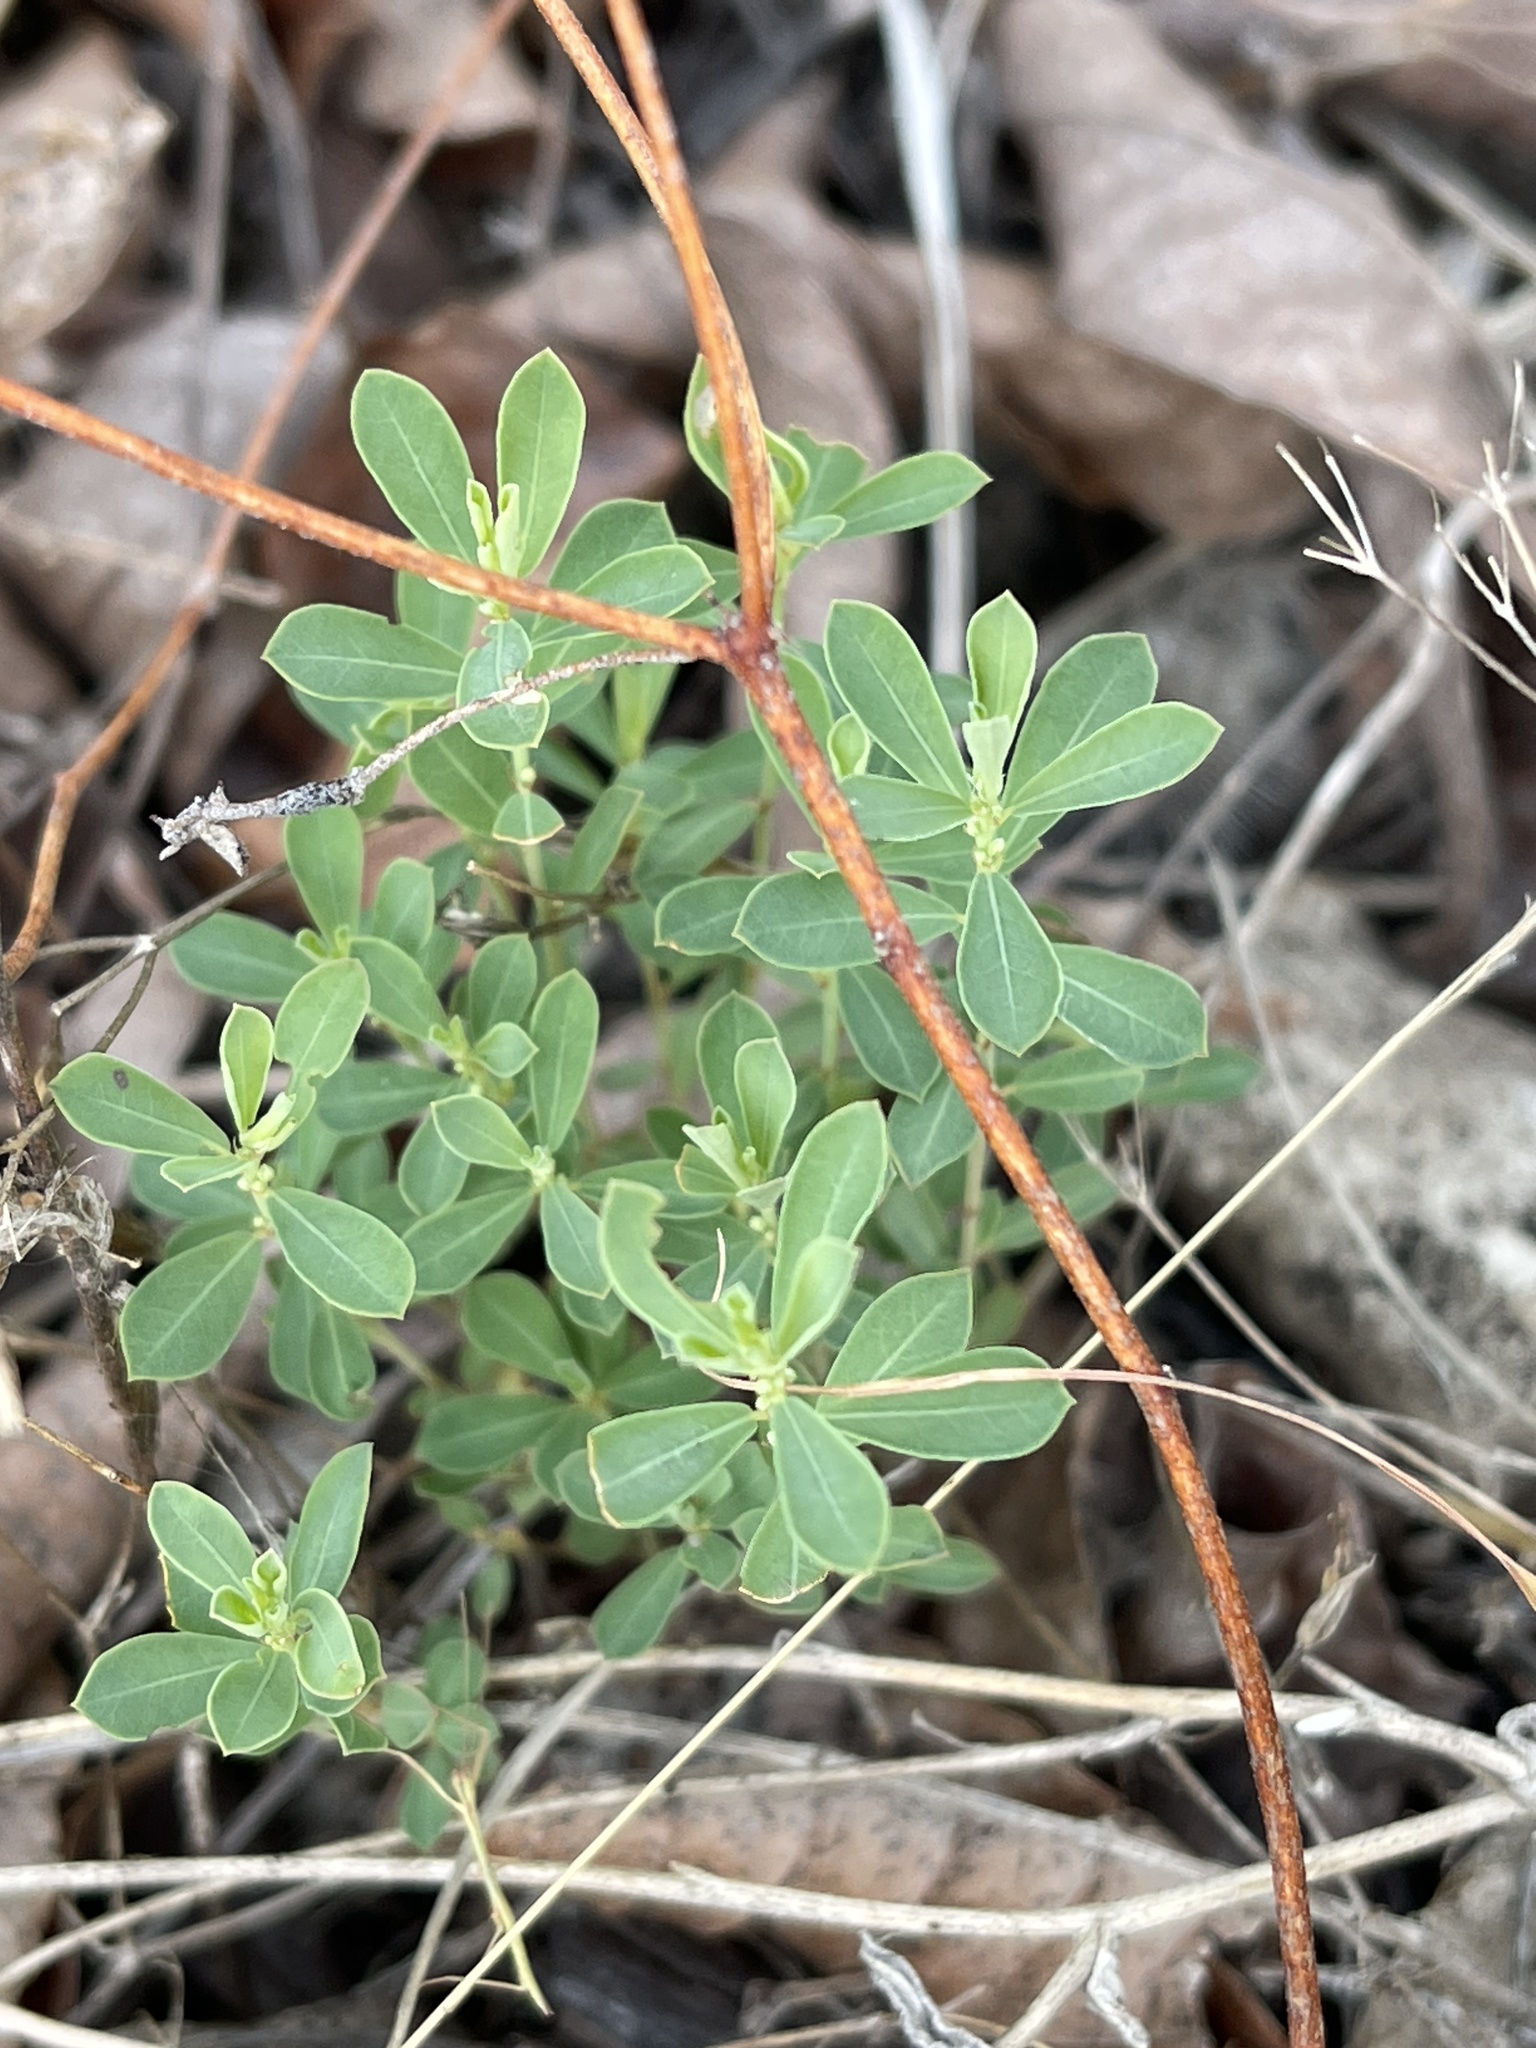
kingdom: Plantae
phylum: Tracheophyta
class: Magnoliopsida
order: Malpighiales
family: Phyllanthaceae
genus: Phyllanthus
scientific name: Phyllanthus polygonoides
